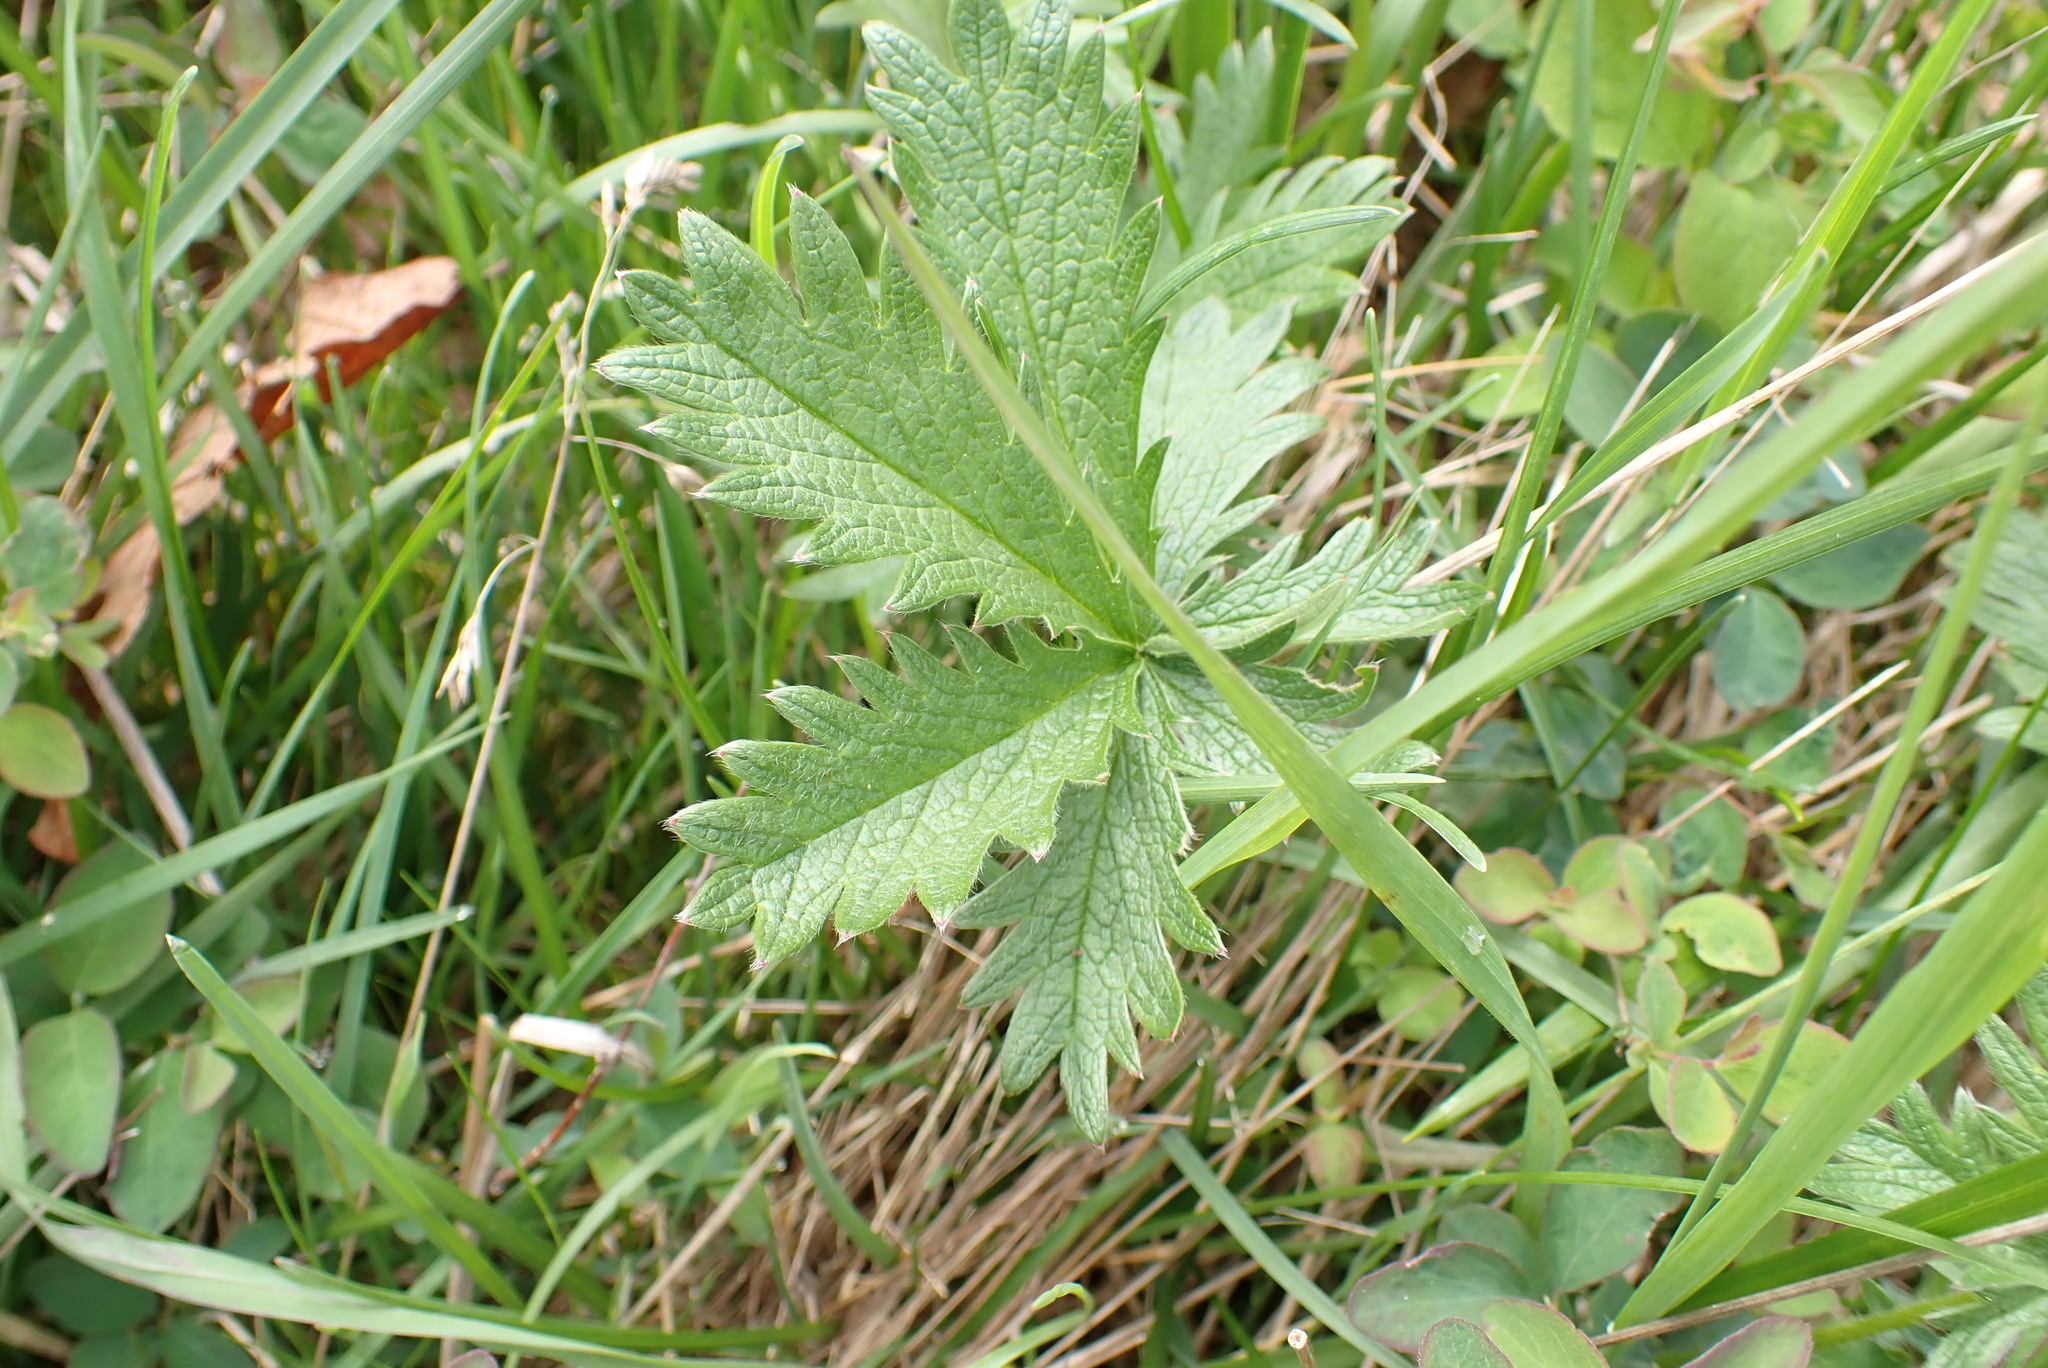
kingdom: Plantae
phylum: Tracheophyta
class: Magnoliopsida
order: Rosales
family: Rosaceae
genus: Potentilla
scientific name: Potentilla gracilis
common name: Graceful cinquefoil
